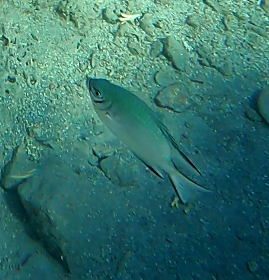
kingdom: Animalia
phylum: Chordata
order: Perciformes
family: Pomacentridae
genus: Amblyglyphidodon
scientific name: Amblyglyphidodon indicus
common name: Maldives damselfish
